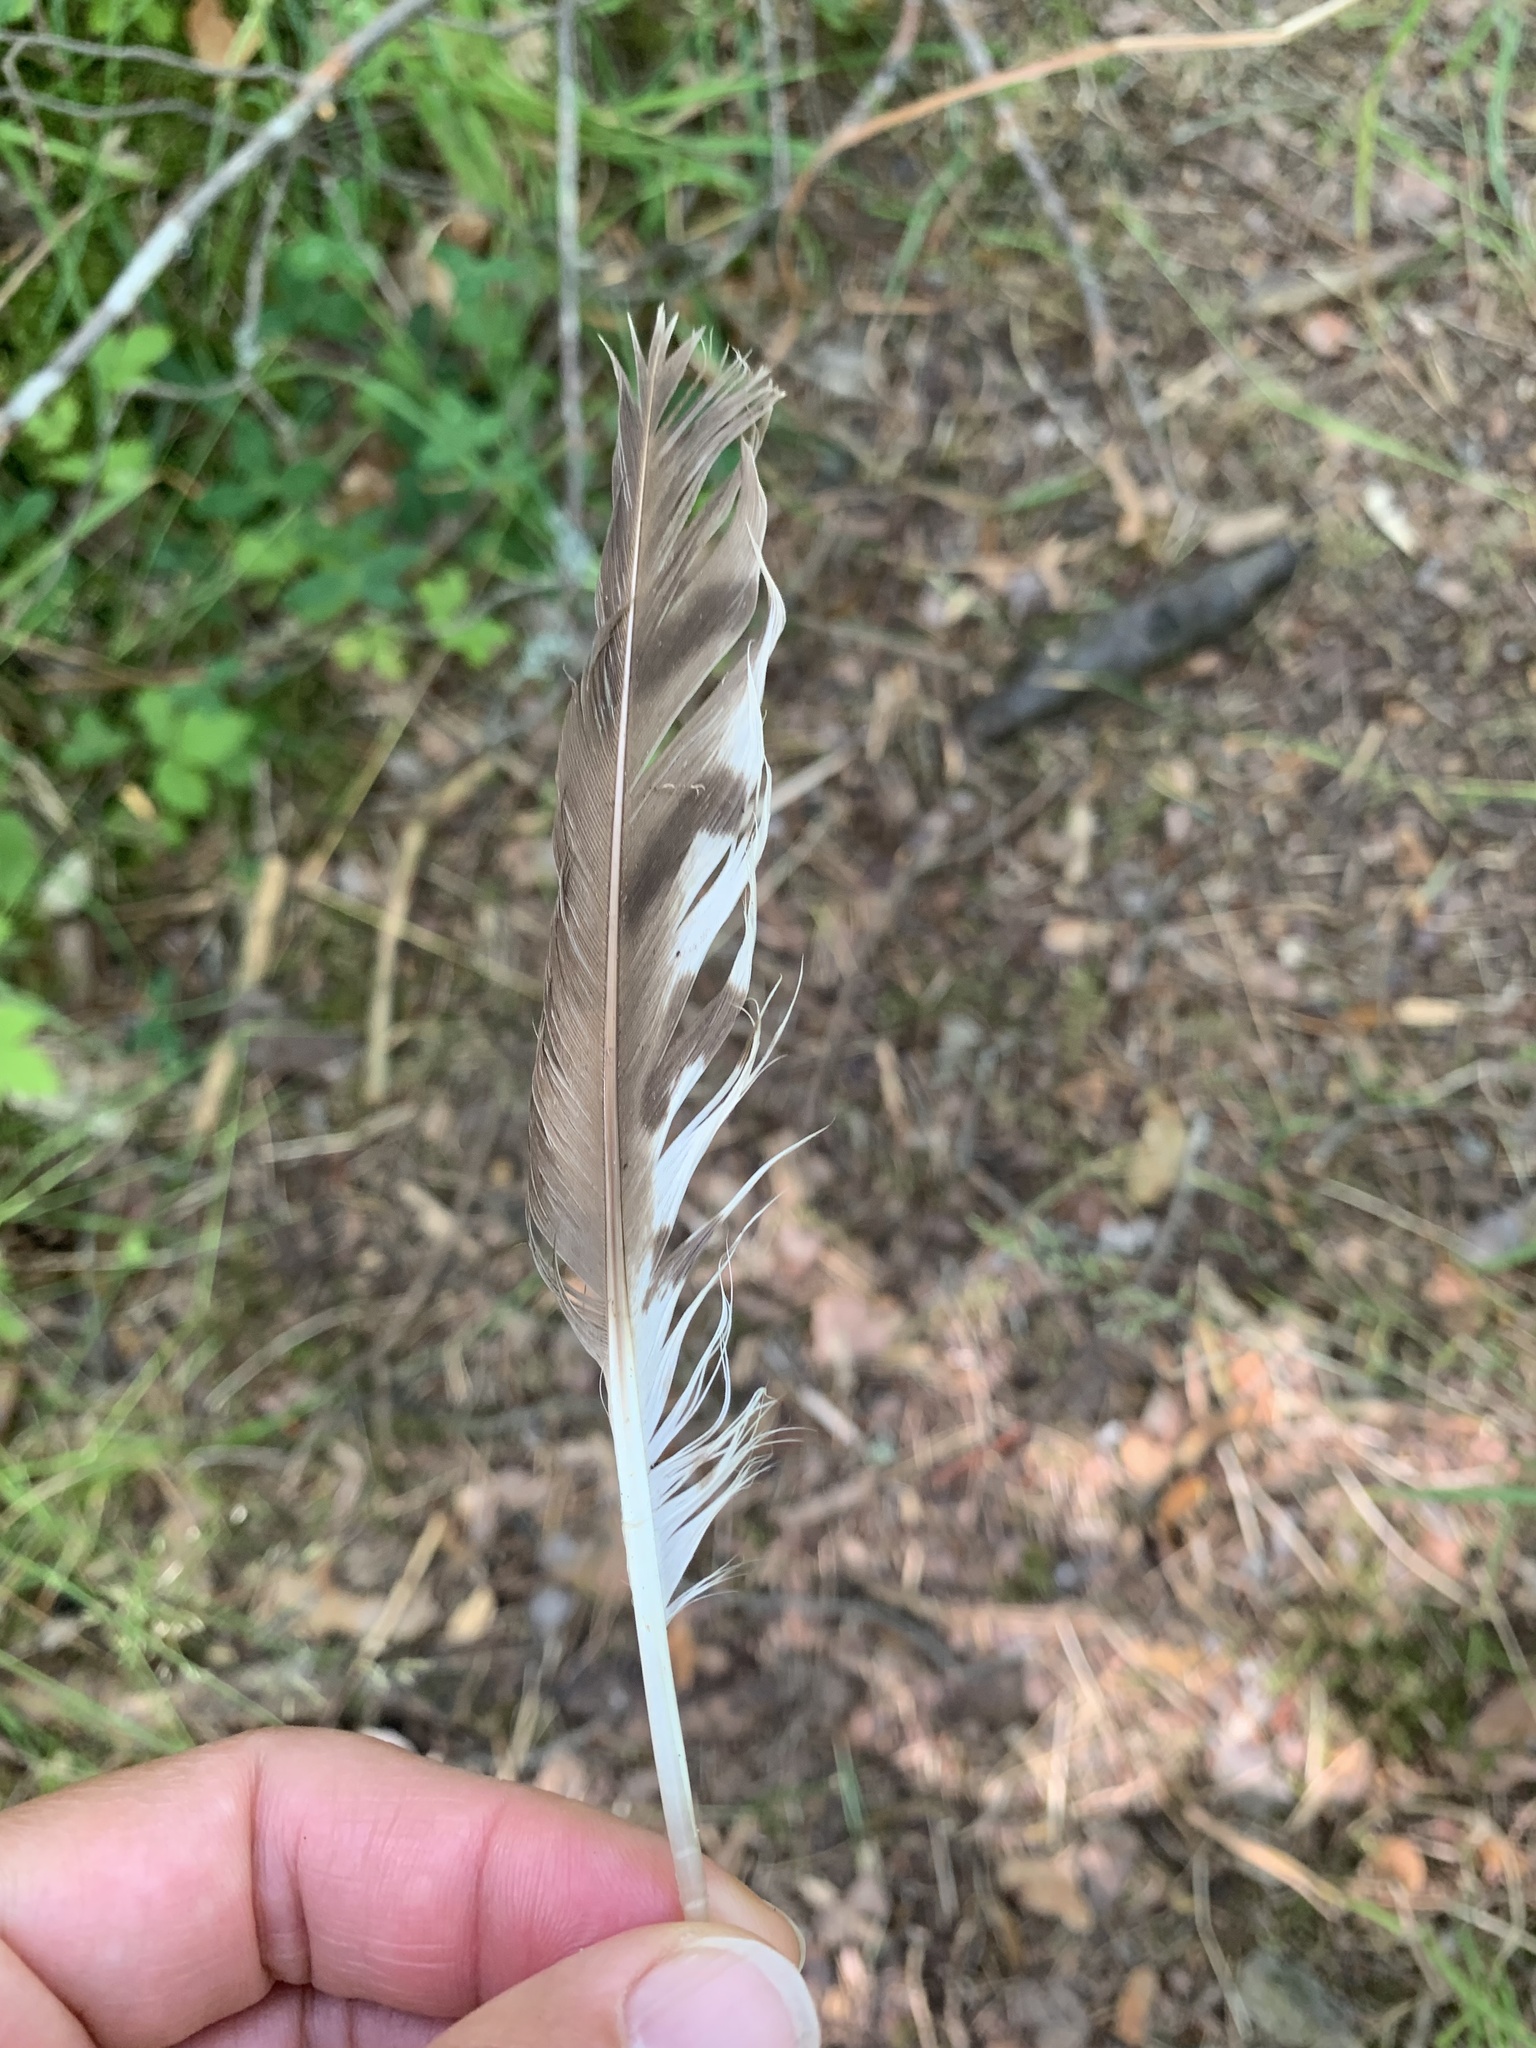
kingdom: Animalia
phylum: Chordata
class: Aves
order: Accipitriformes
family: Accipitridae
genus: Accipiter
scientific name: Accipiter nisus
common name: Eurasian sparrowhawk
